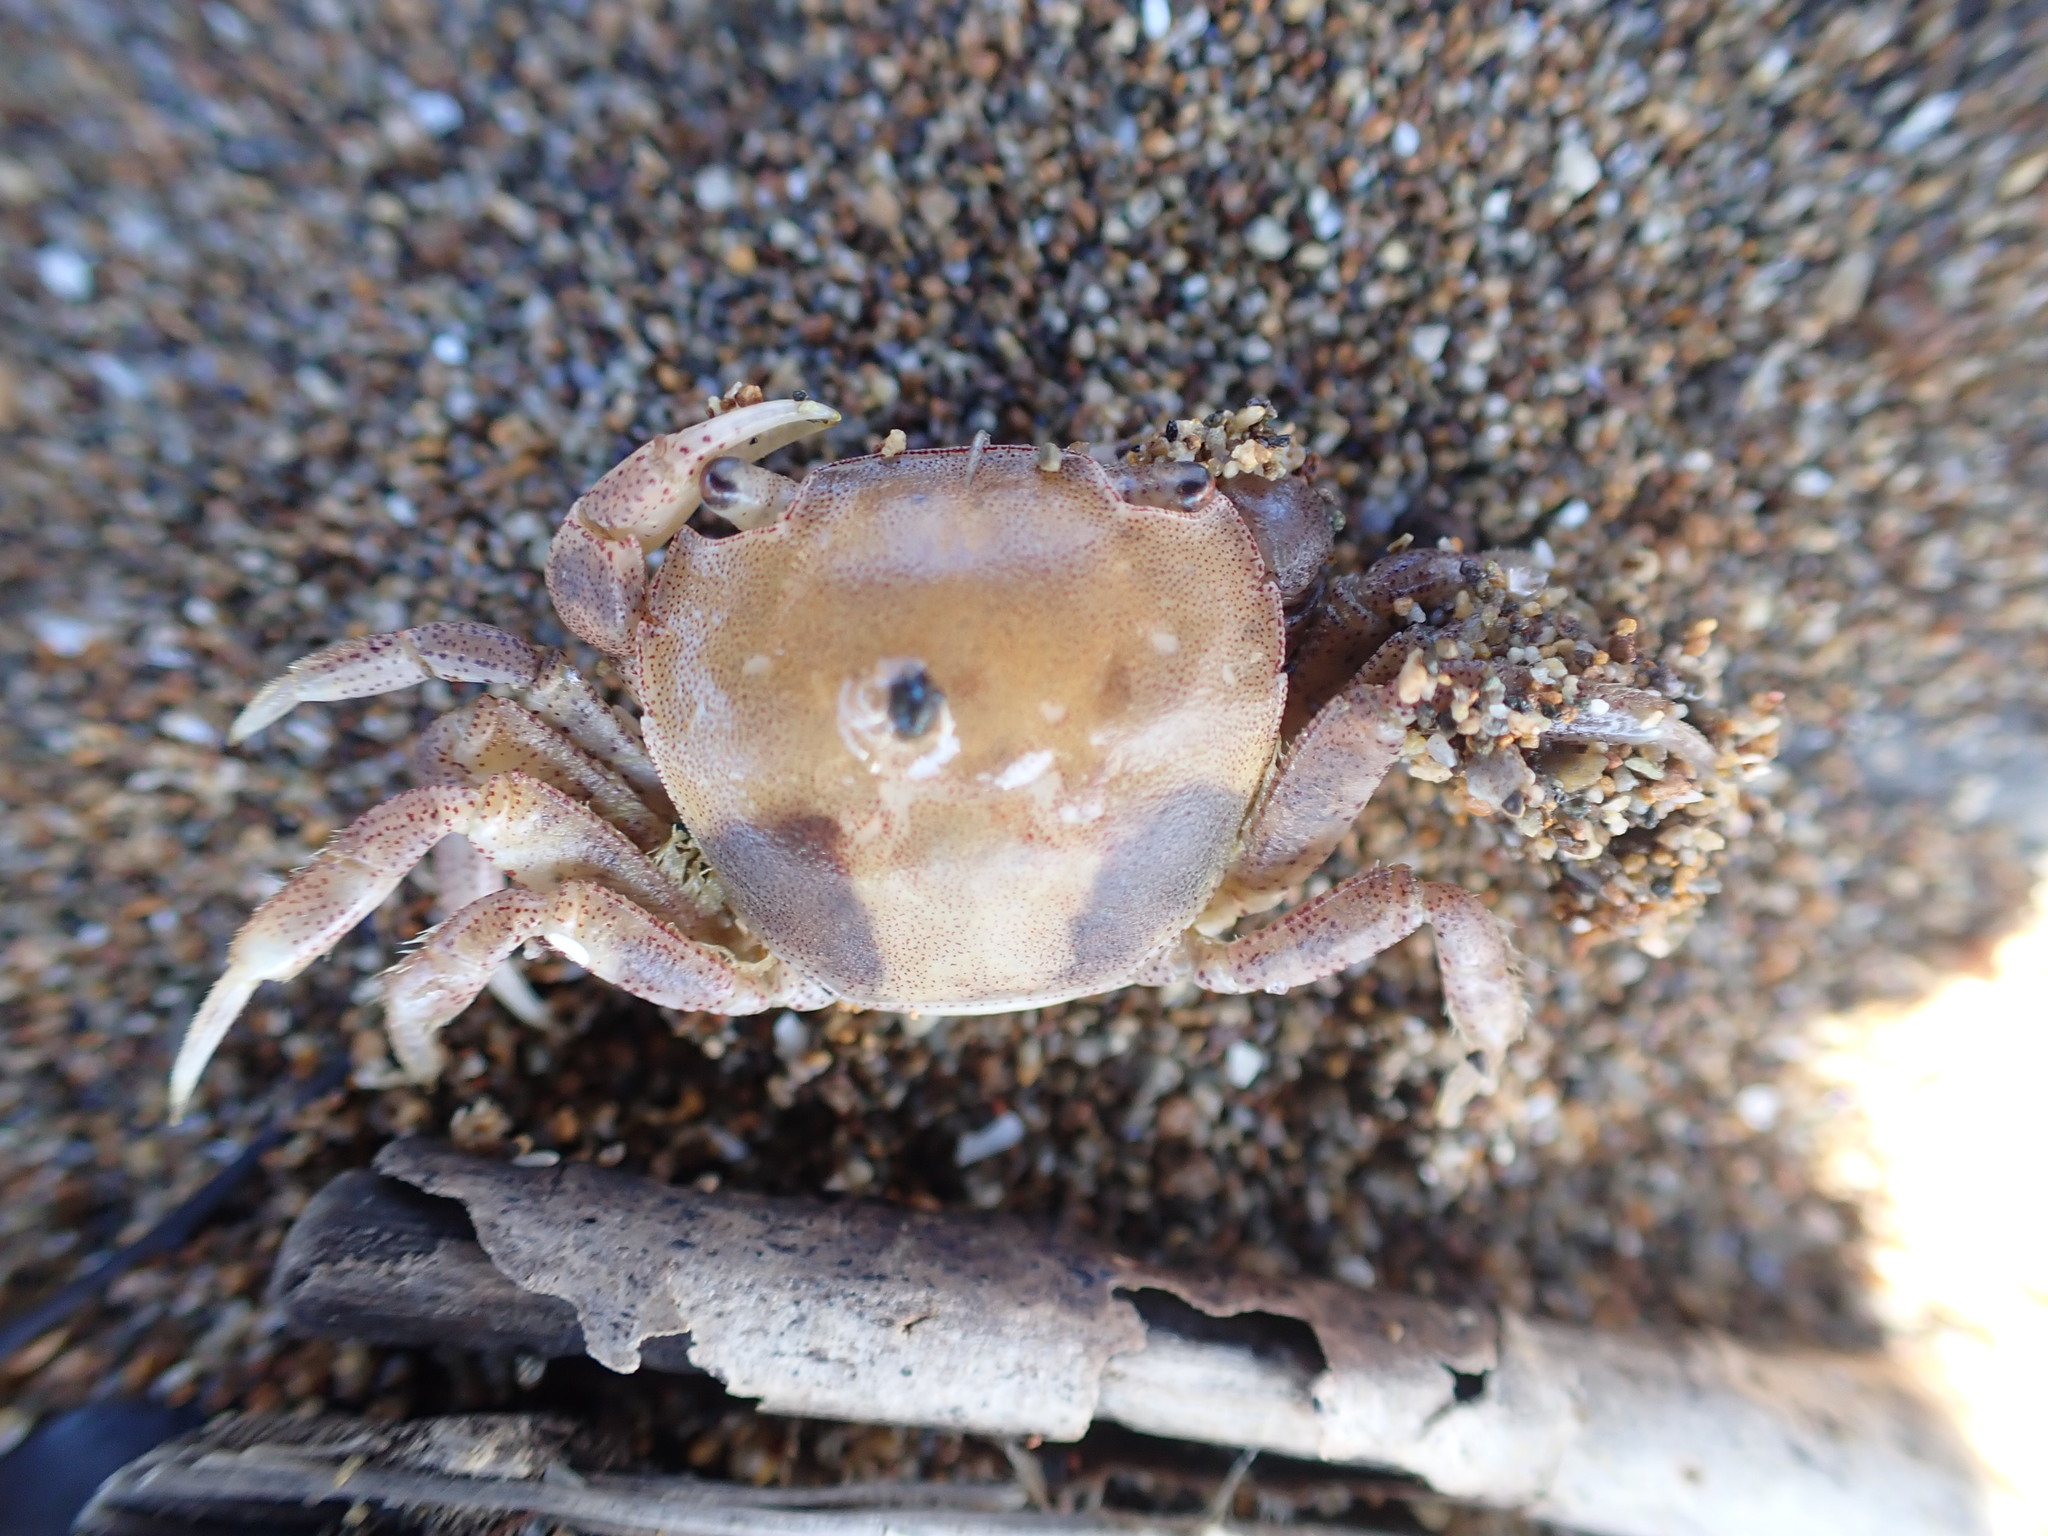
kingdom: Animalia
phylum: Arthropoda
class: Malacostraca
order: Decapoda
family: Varunidae
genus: Hemigrapsus
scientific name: Hemigrapsus crenulatus
